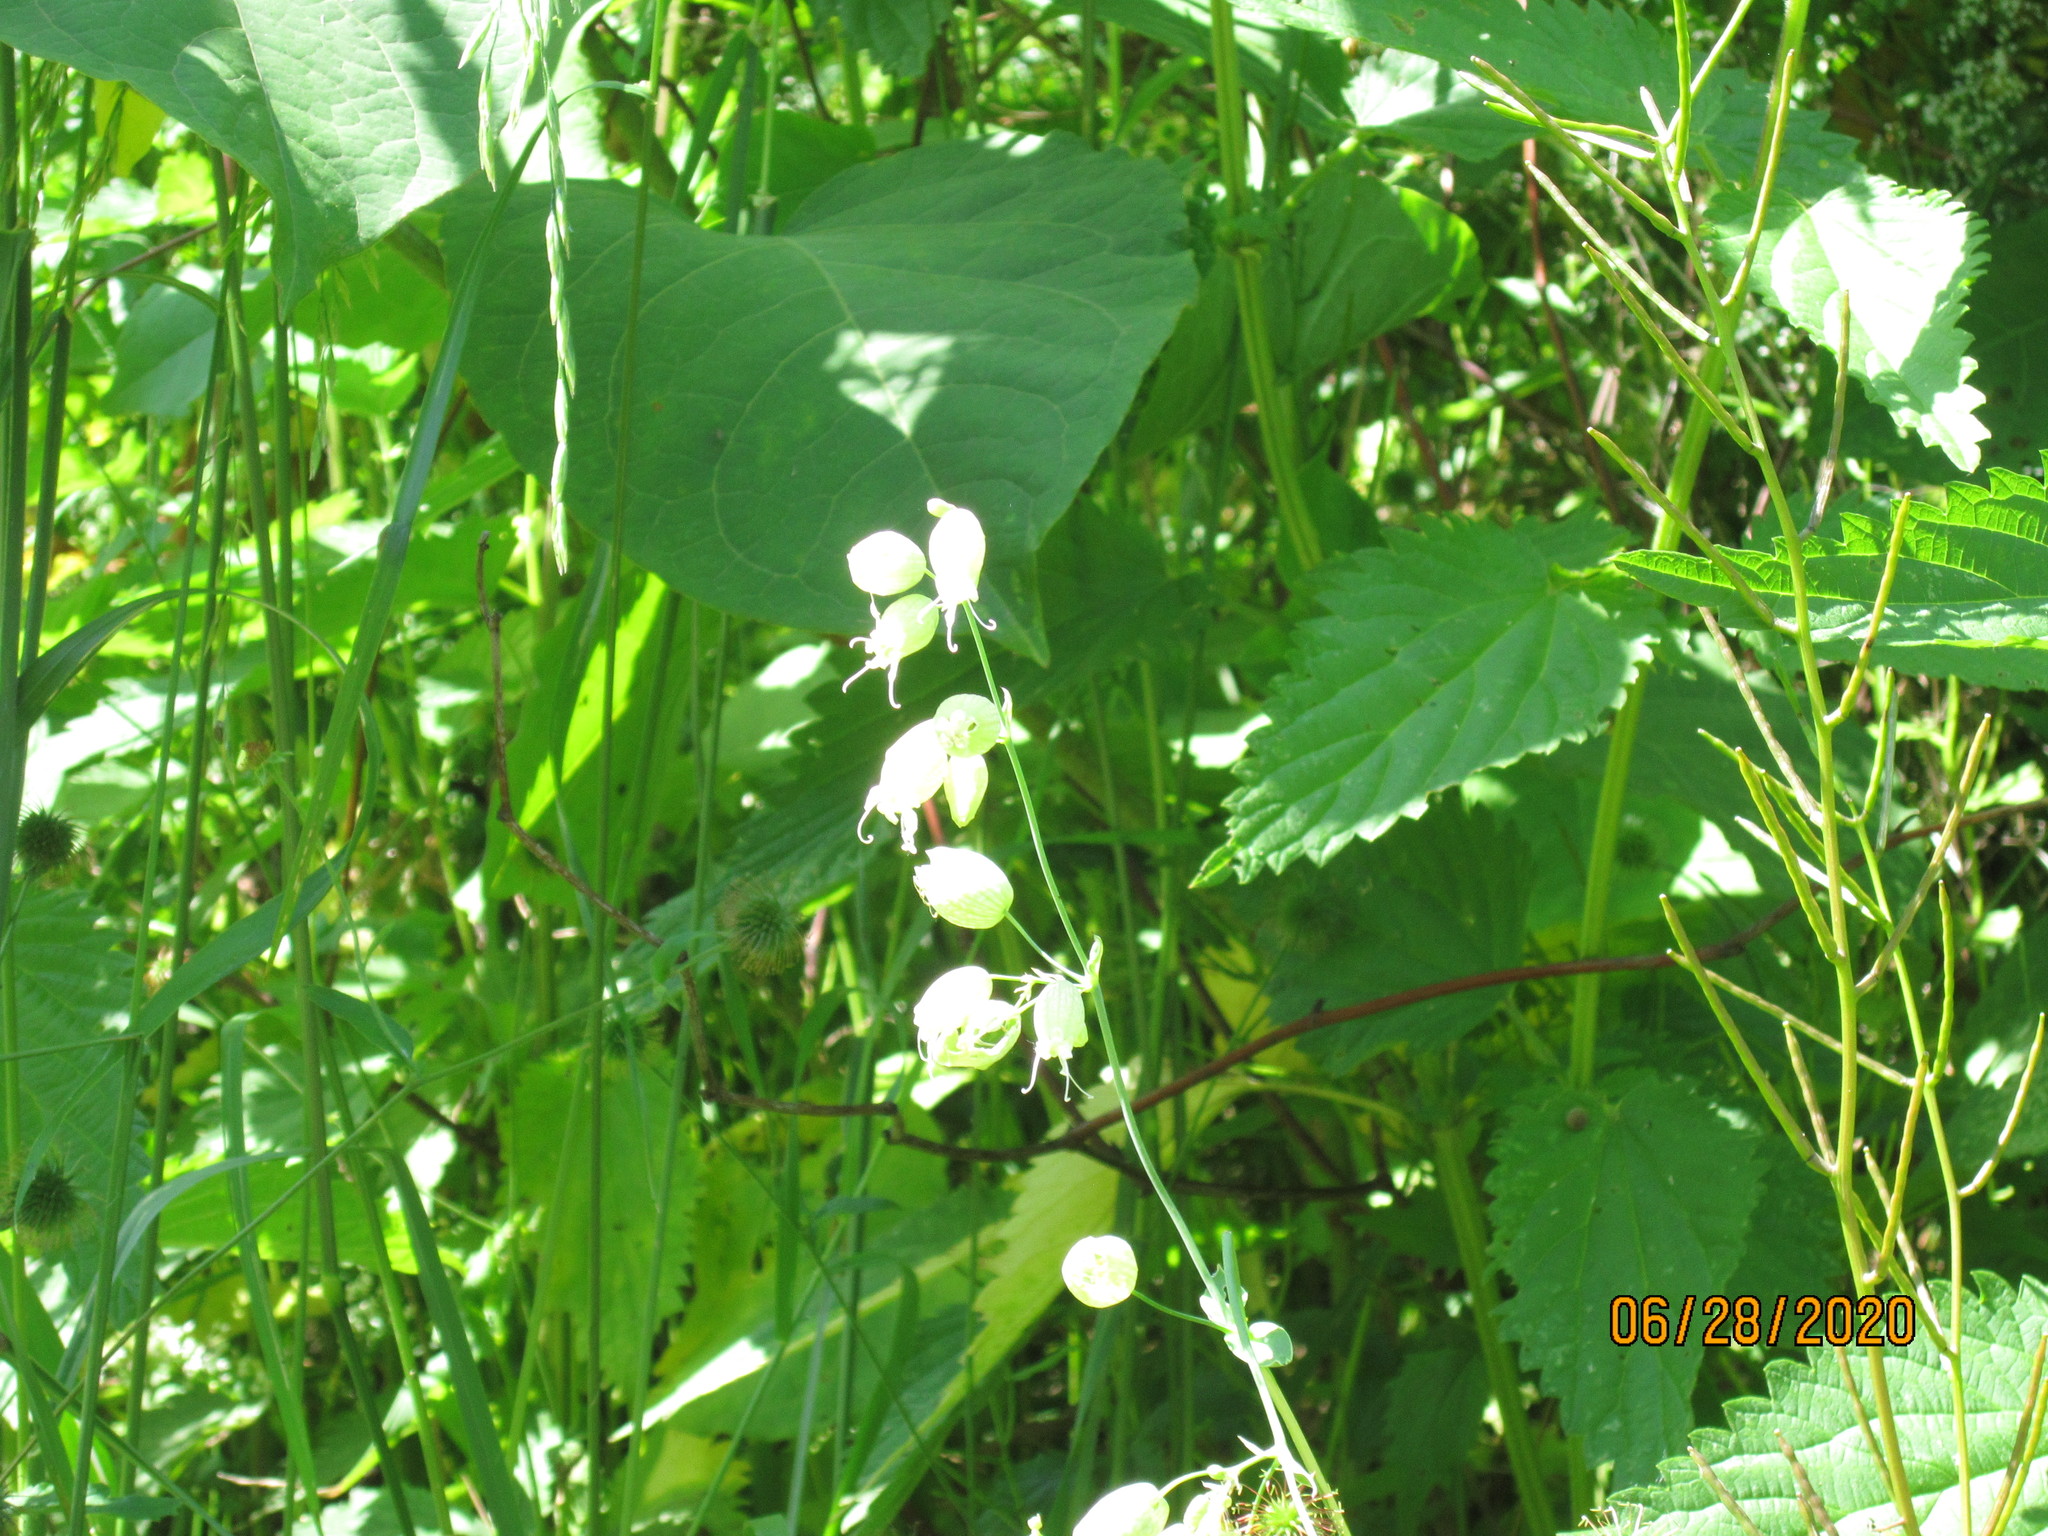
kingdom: Plantae
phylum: Tracheophyta
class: Magnoliopsida
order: Caryophyllales
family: Caryophyllaceae
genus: Silene
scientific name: Silene vulgaris
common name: Bladder campion
